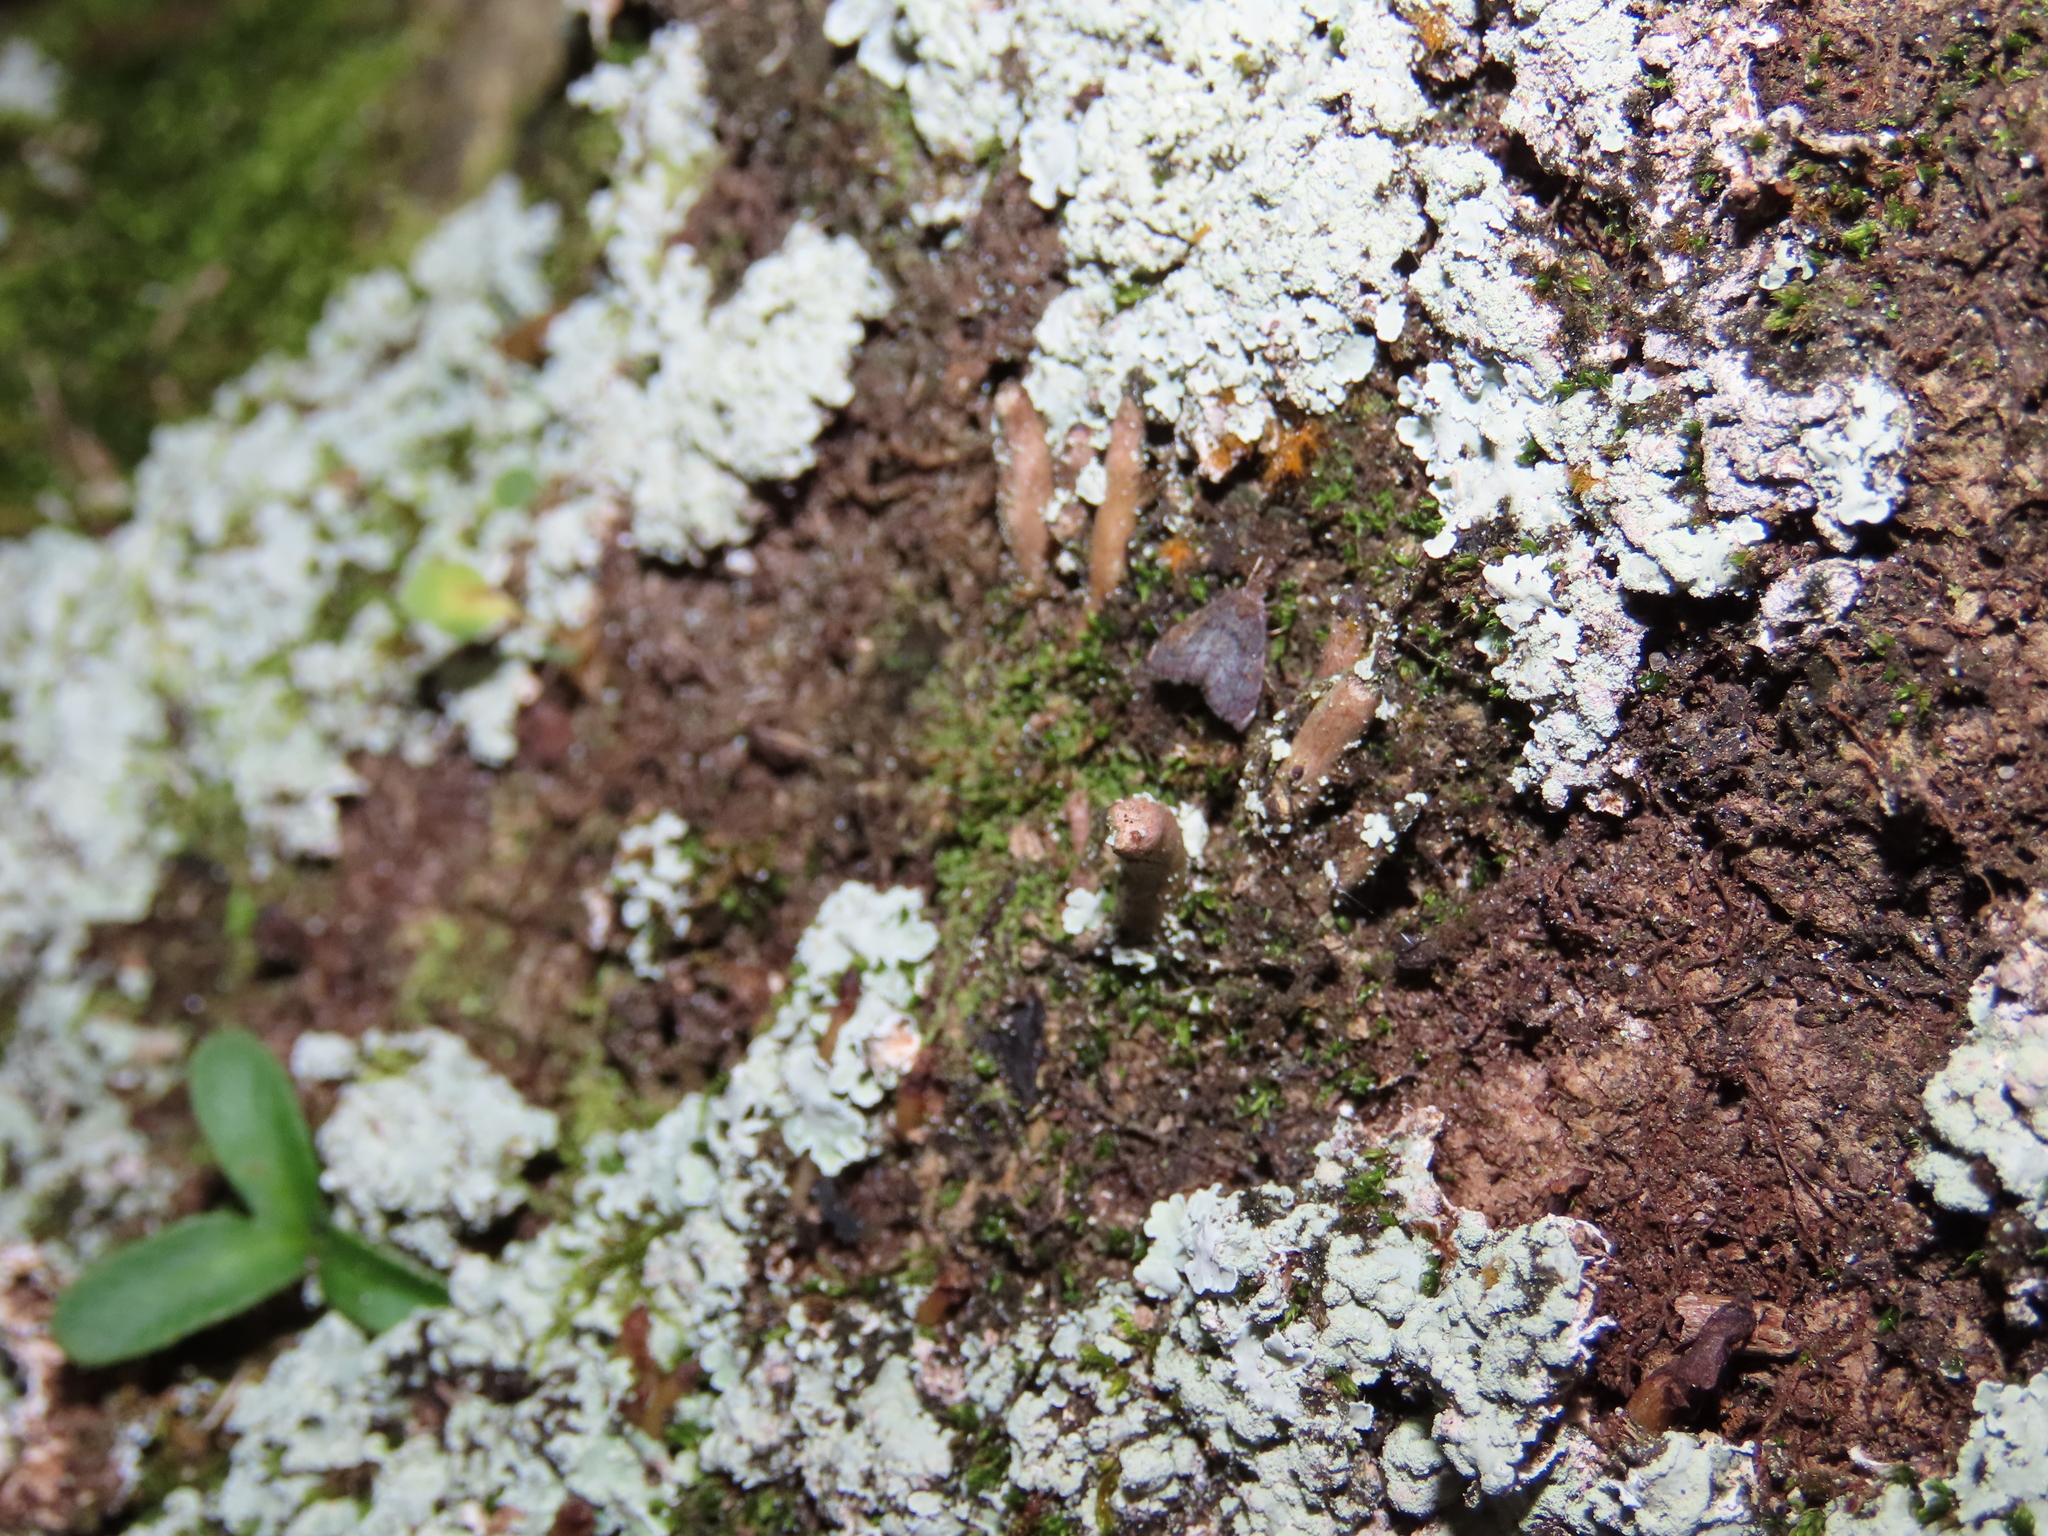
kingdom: Animalia
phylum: Arthropoda
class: Insecta
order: Lepidoptera
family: Crambidae
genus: Microcausta
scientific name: Microcausta flavipunctalis
